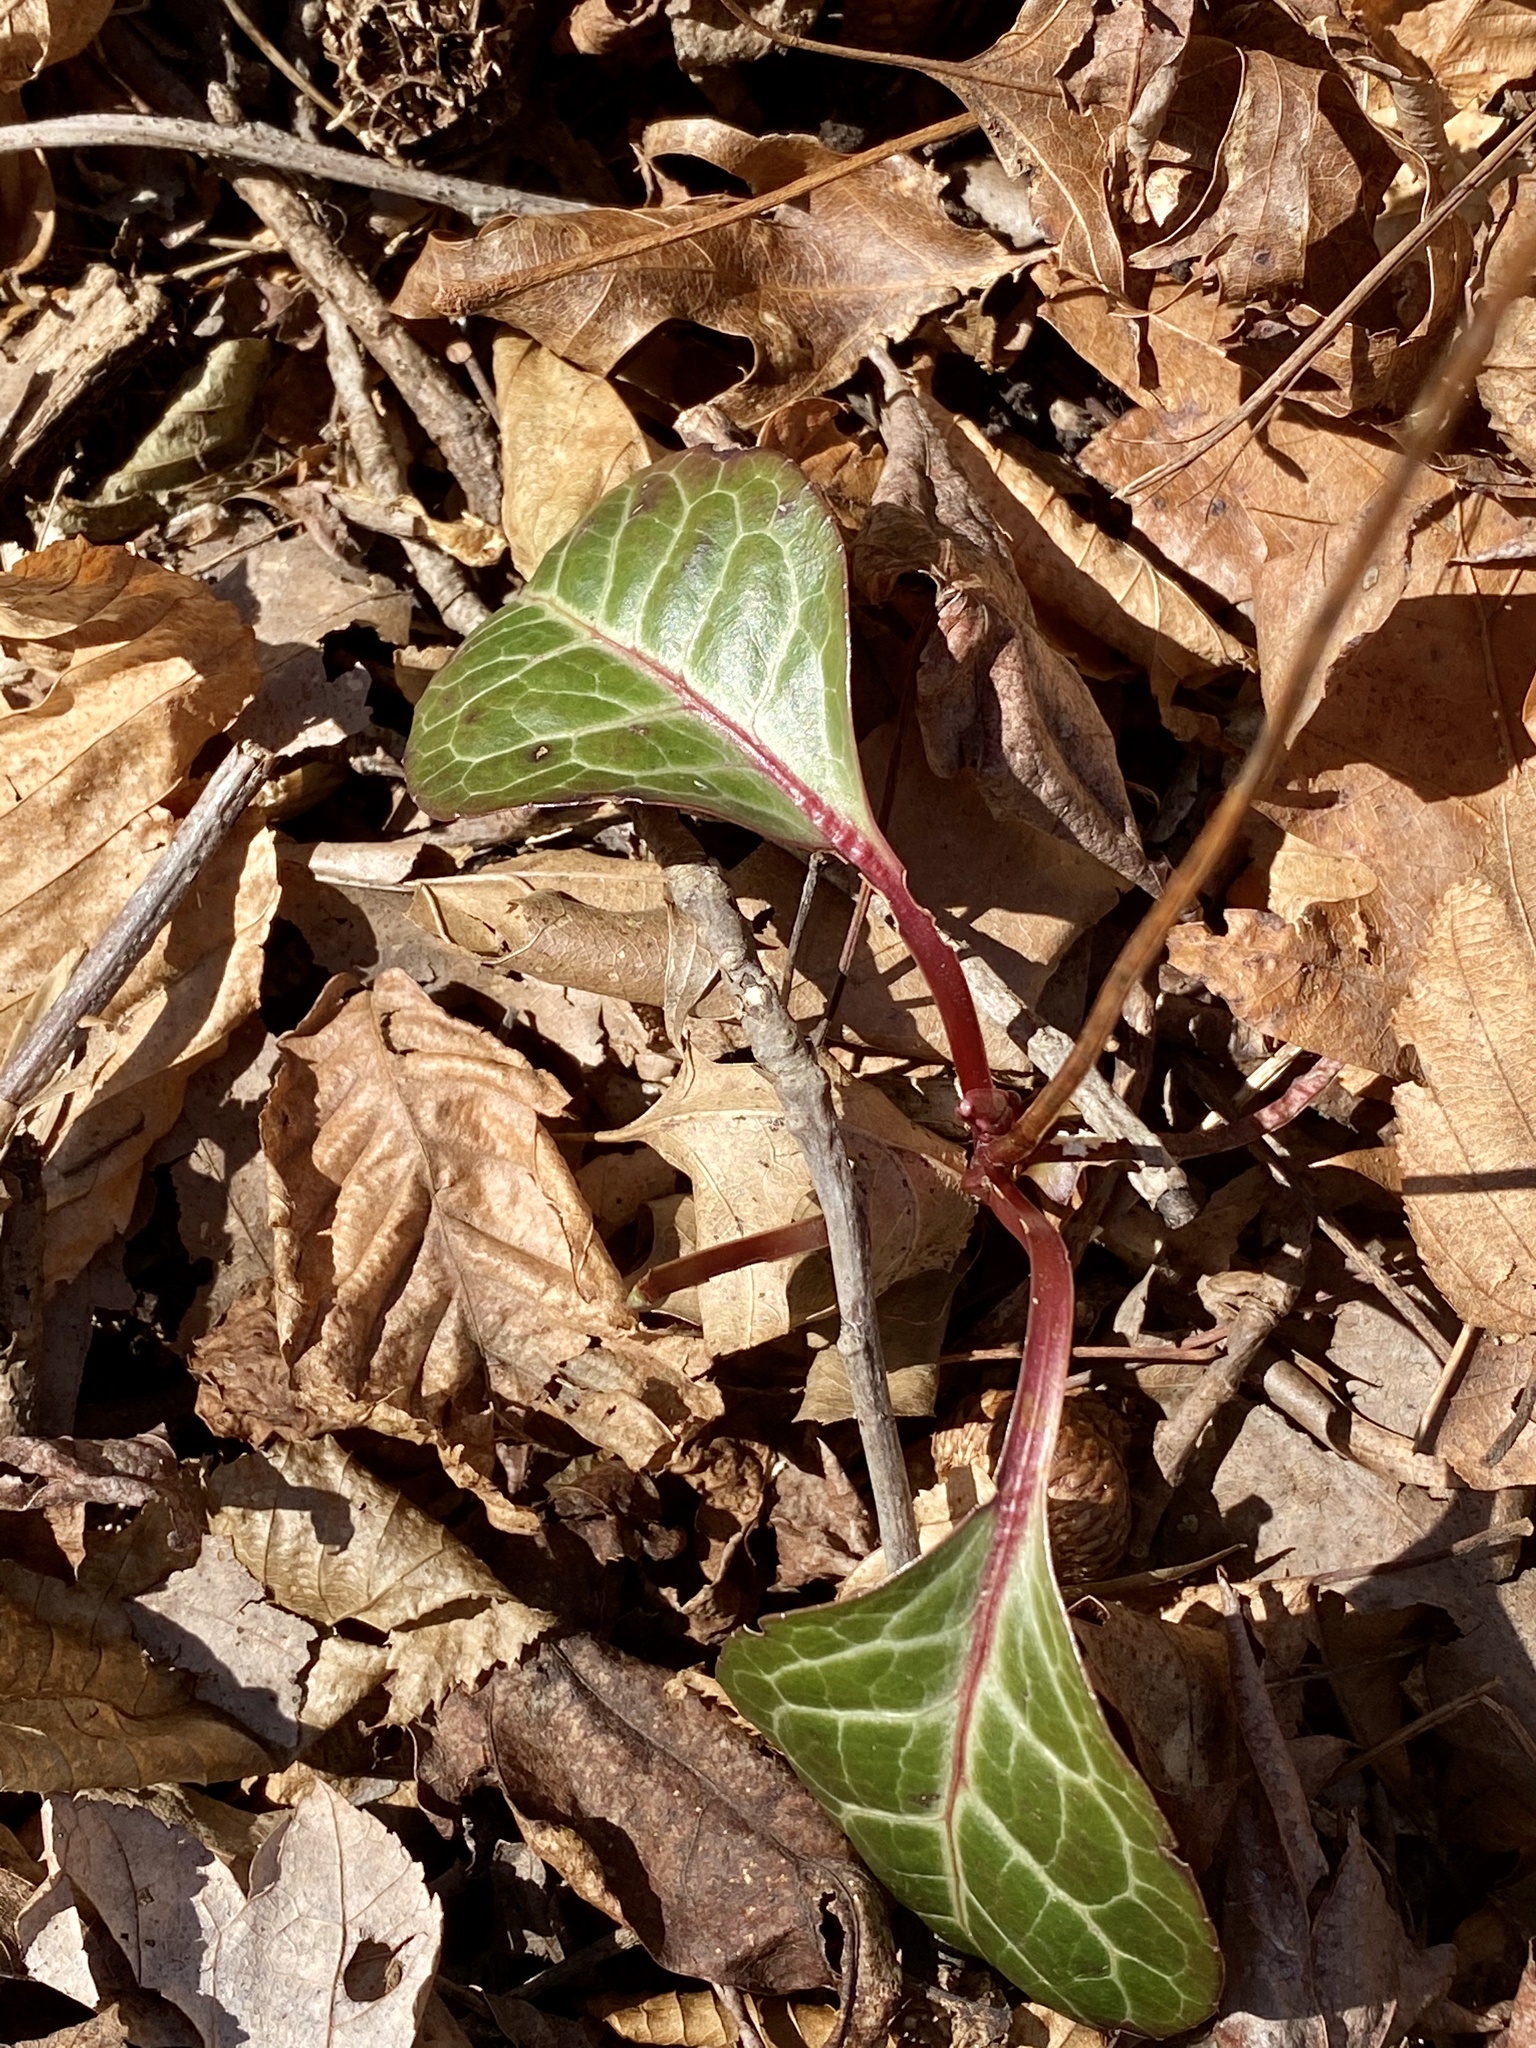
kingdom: Plantae
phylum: Tracheophyta
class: Magnoliopsida
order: Ericales
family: Ericaceae
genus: Pyrola
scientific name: Pyrola americana
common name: American wintergreen
